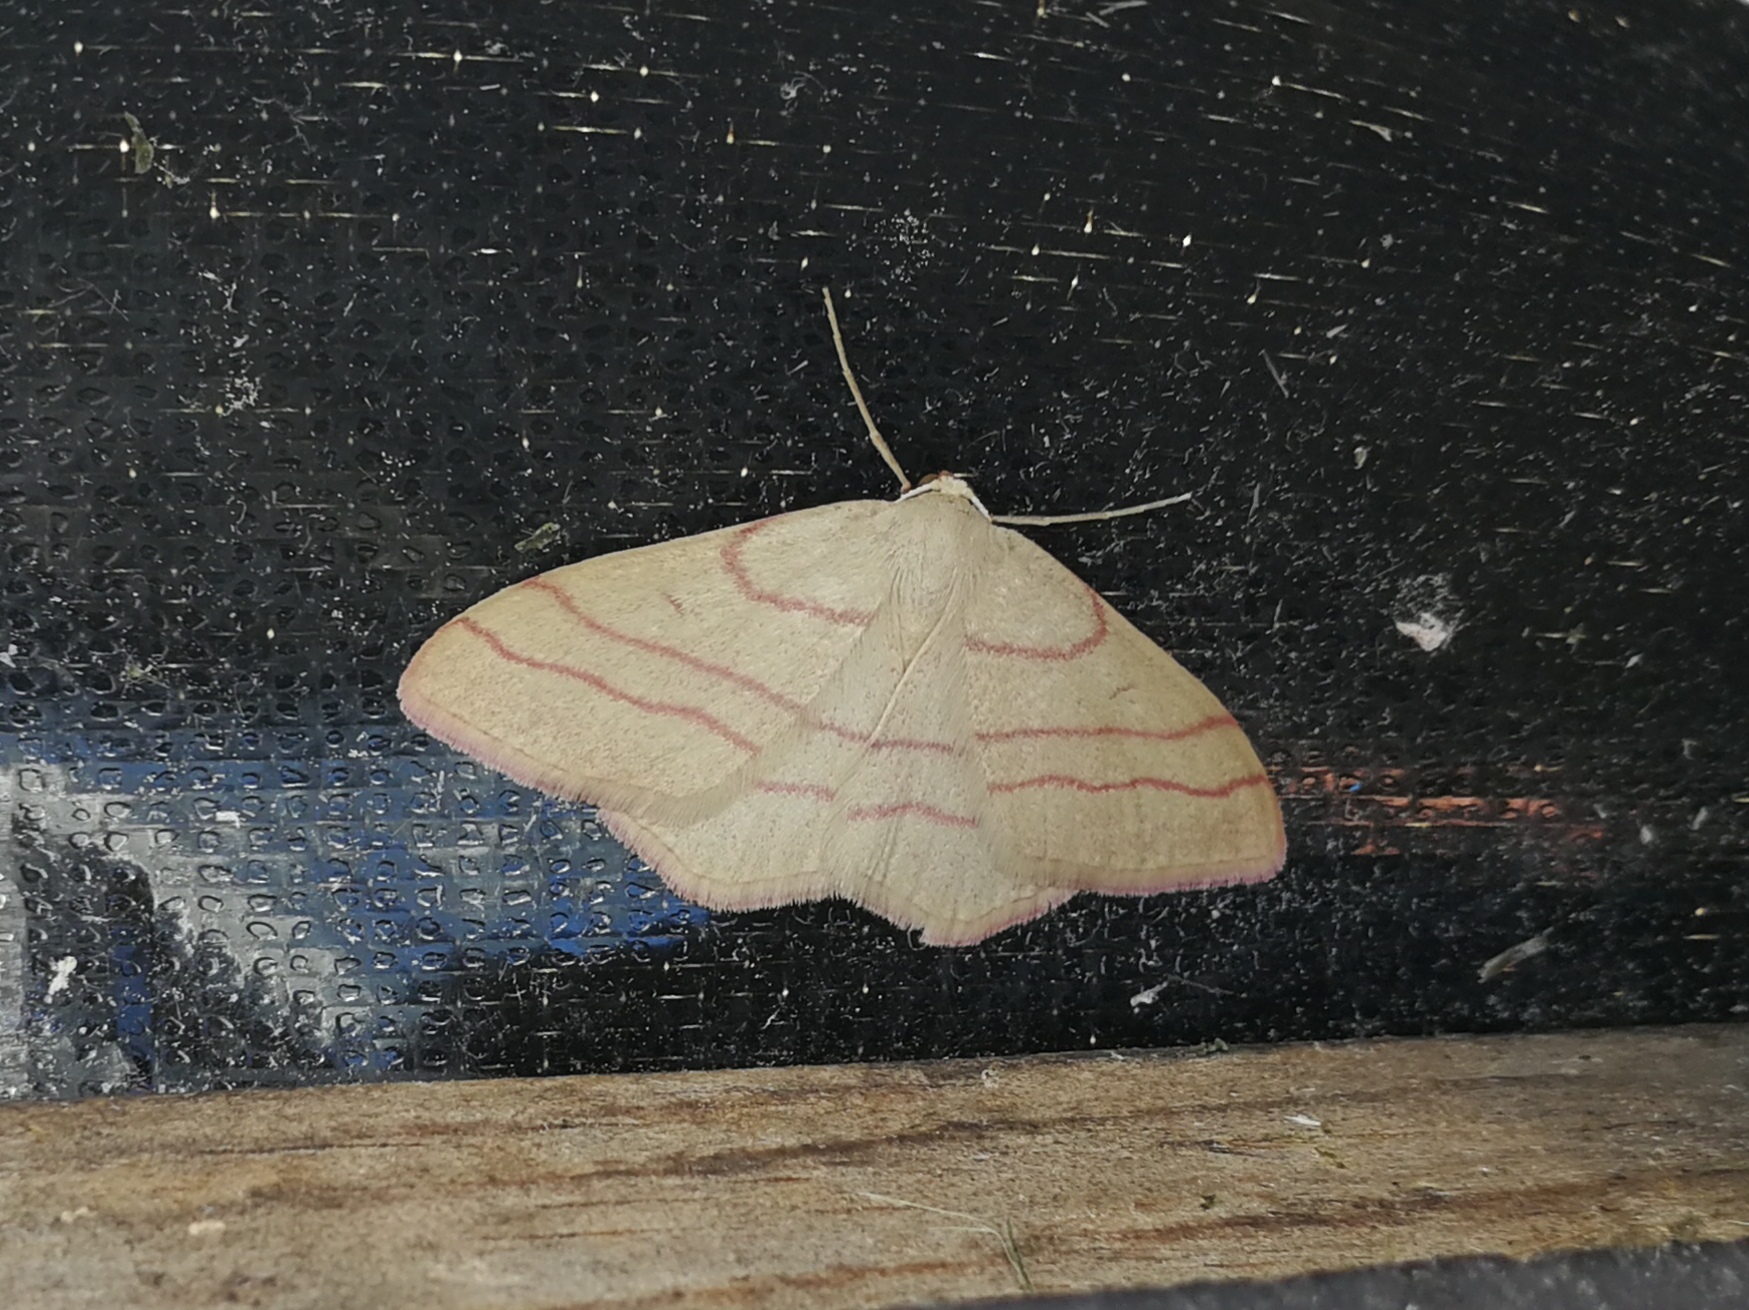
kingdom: Animalia
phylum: Arthropoda
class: Insecta
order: Lepidoptera
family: Geometridae
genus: Rhodostrophia
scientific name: Rhodostrophia vibicaria
